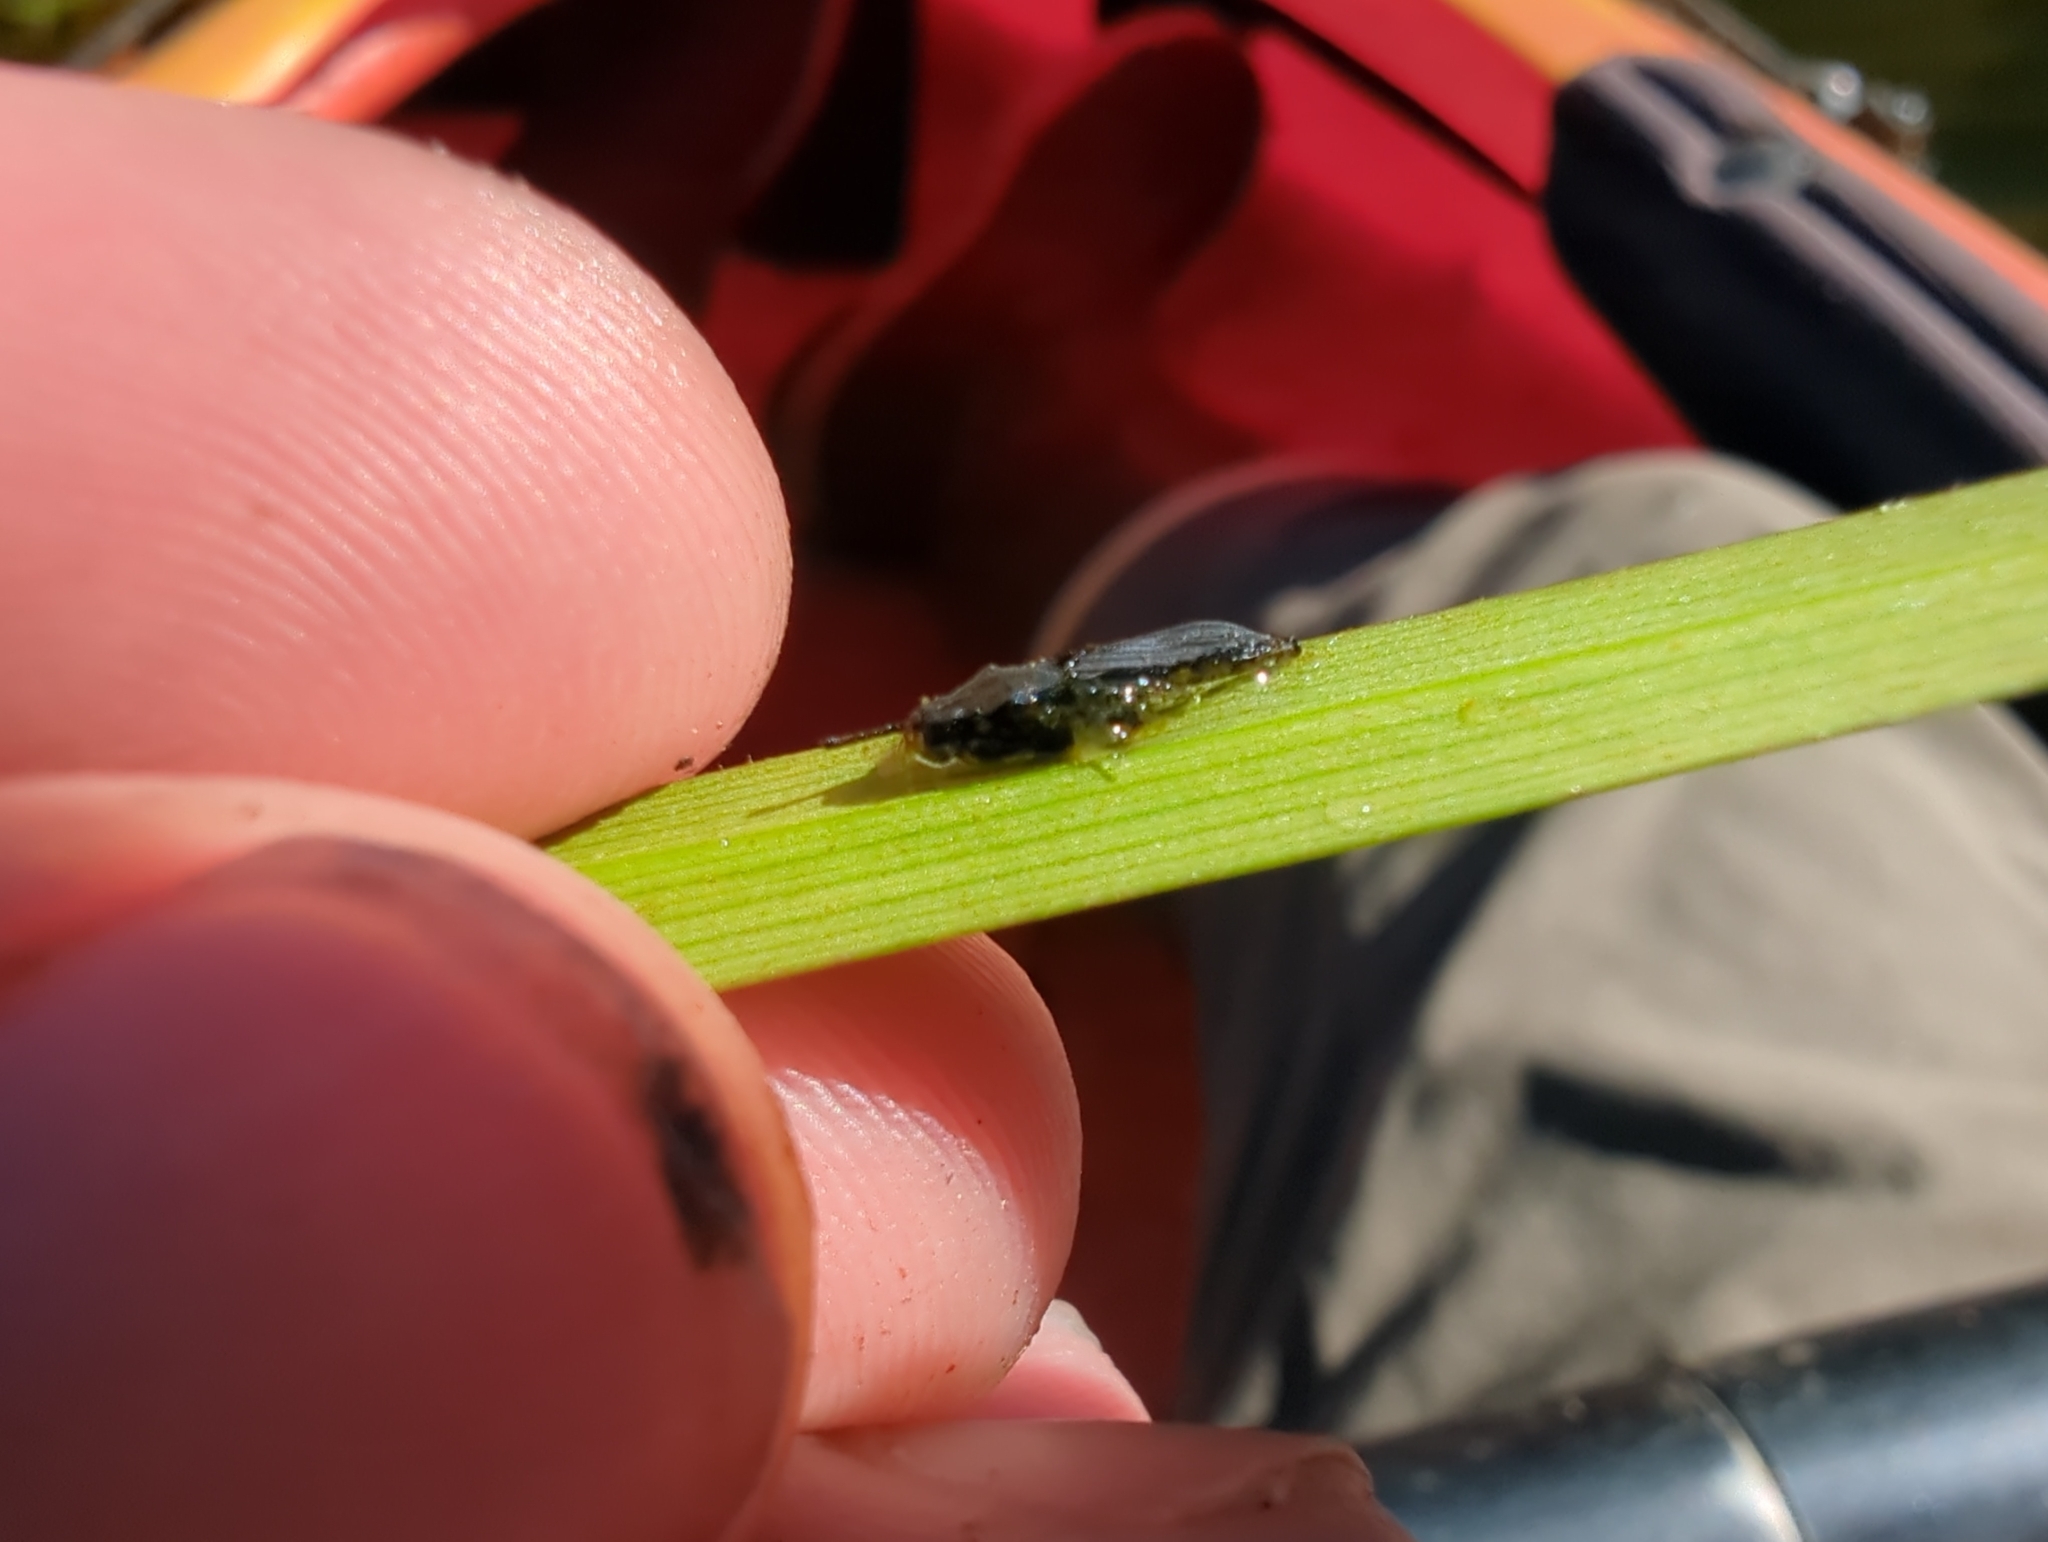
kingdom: Animalia
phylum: Arthropoda
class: Insecta
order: Hemiptera
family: Gerridae
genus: Gerris
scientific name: Gerris
